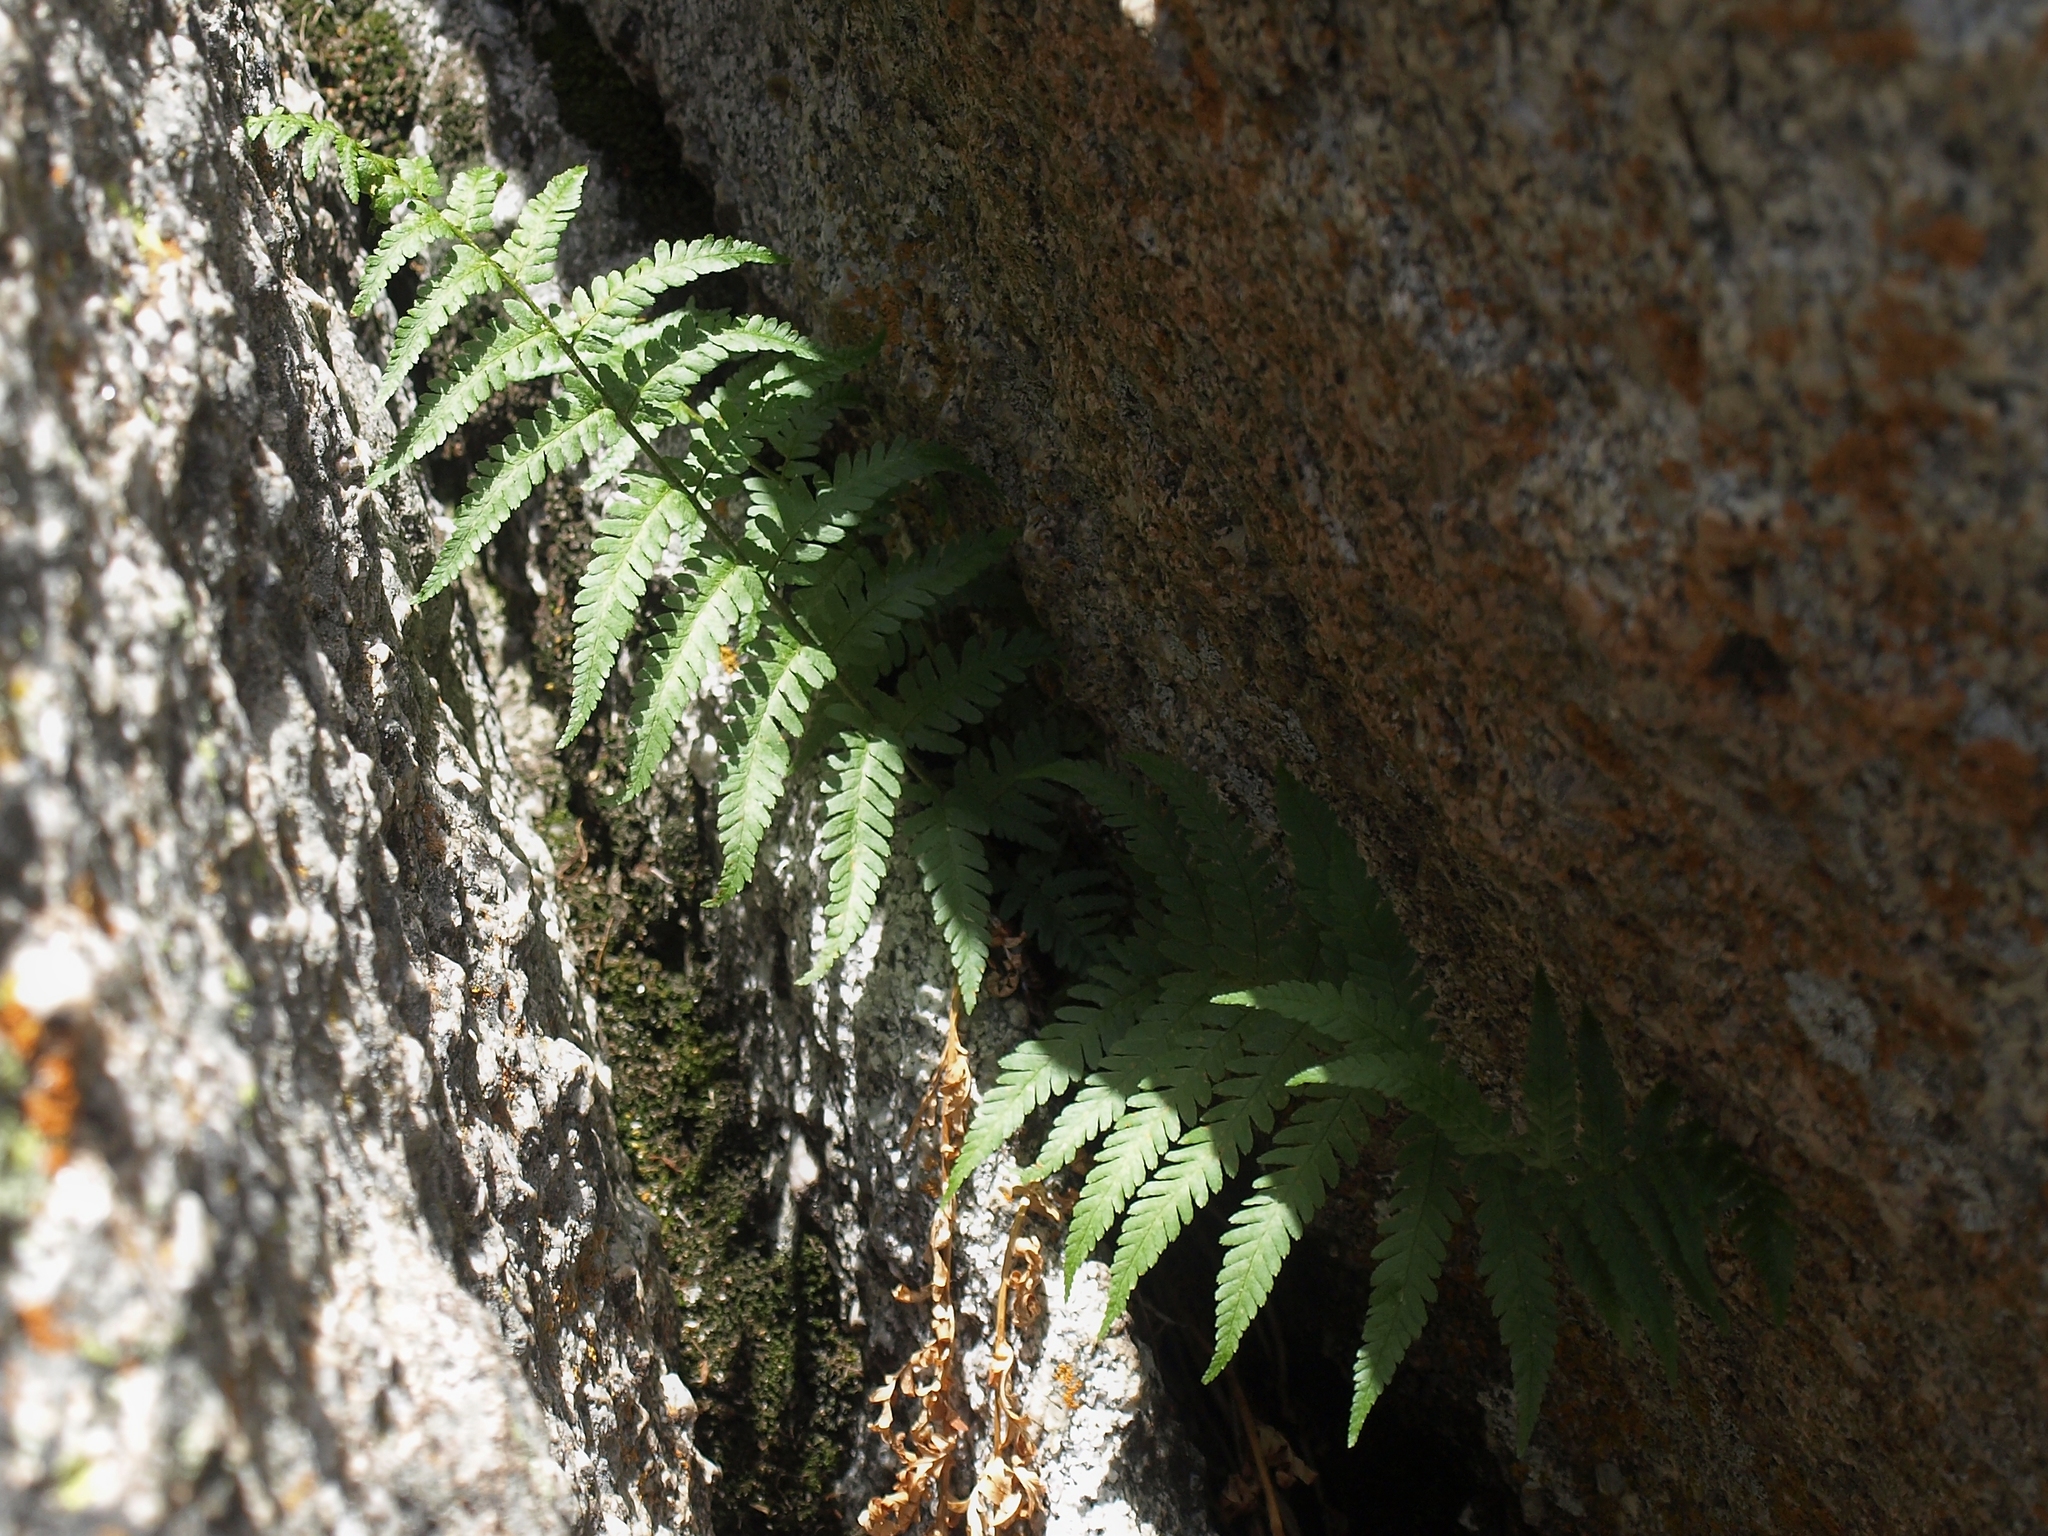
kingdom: Plantae
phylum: Tracheophyta
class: Polypodiopsida
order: Polypodiales
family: Dryopteridaceae
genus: Dryopteris
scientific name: Dryopteris filix-mas
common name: Male fern
